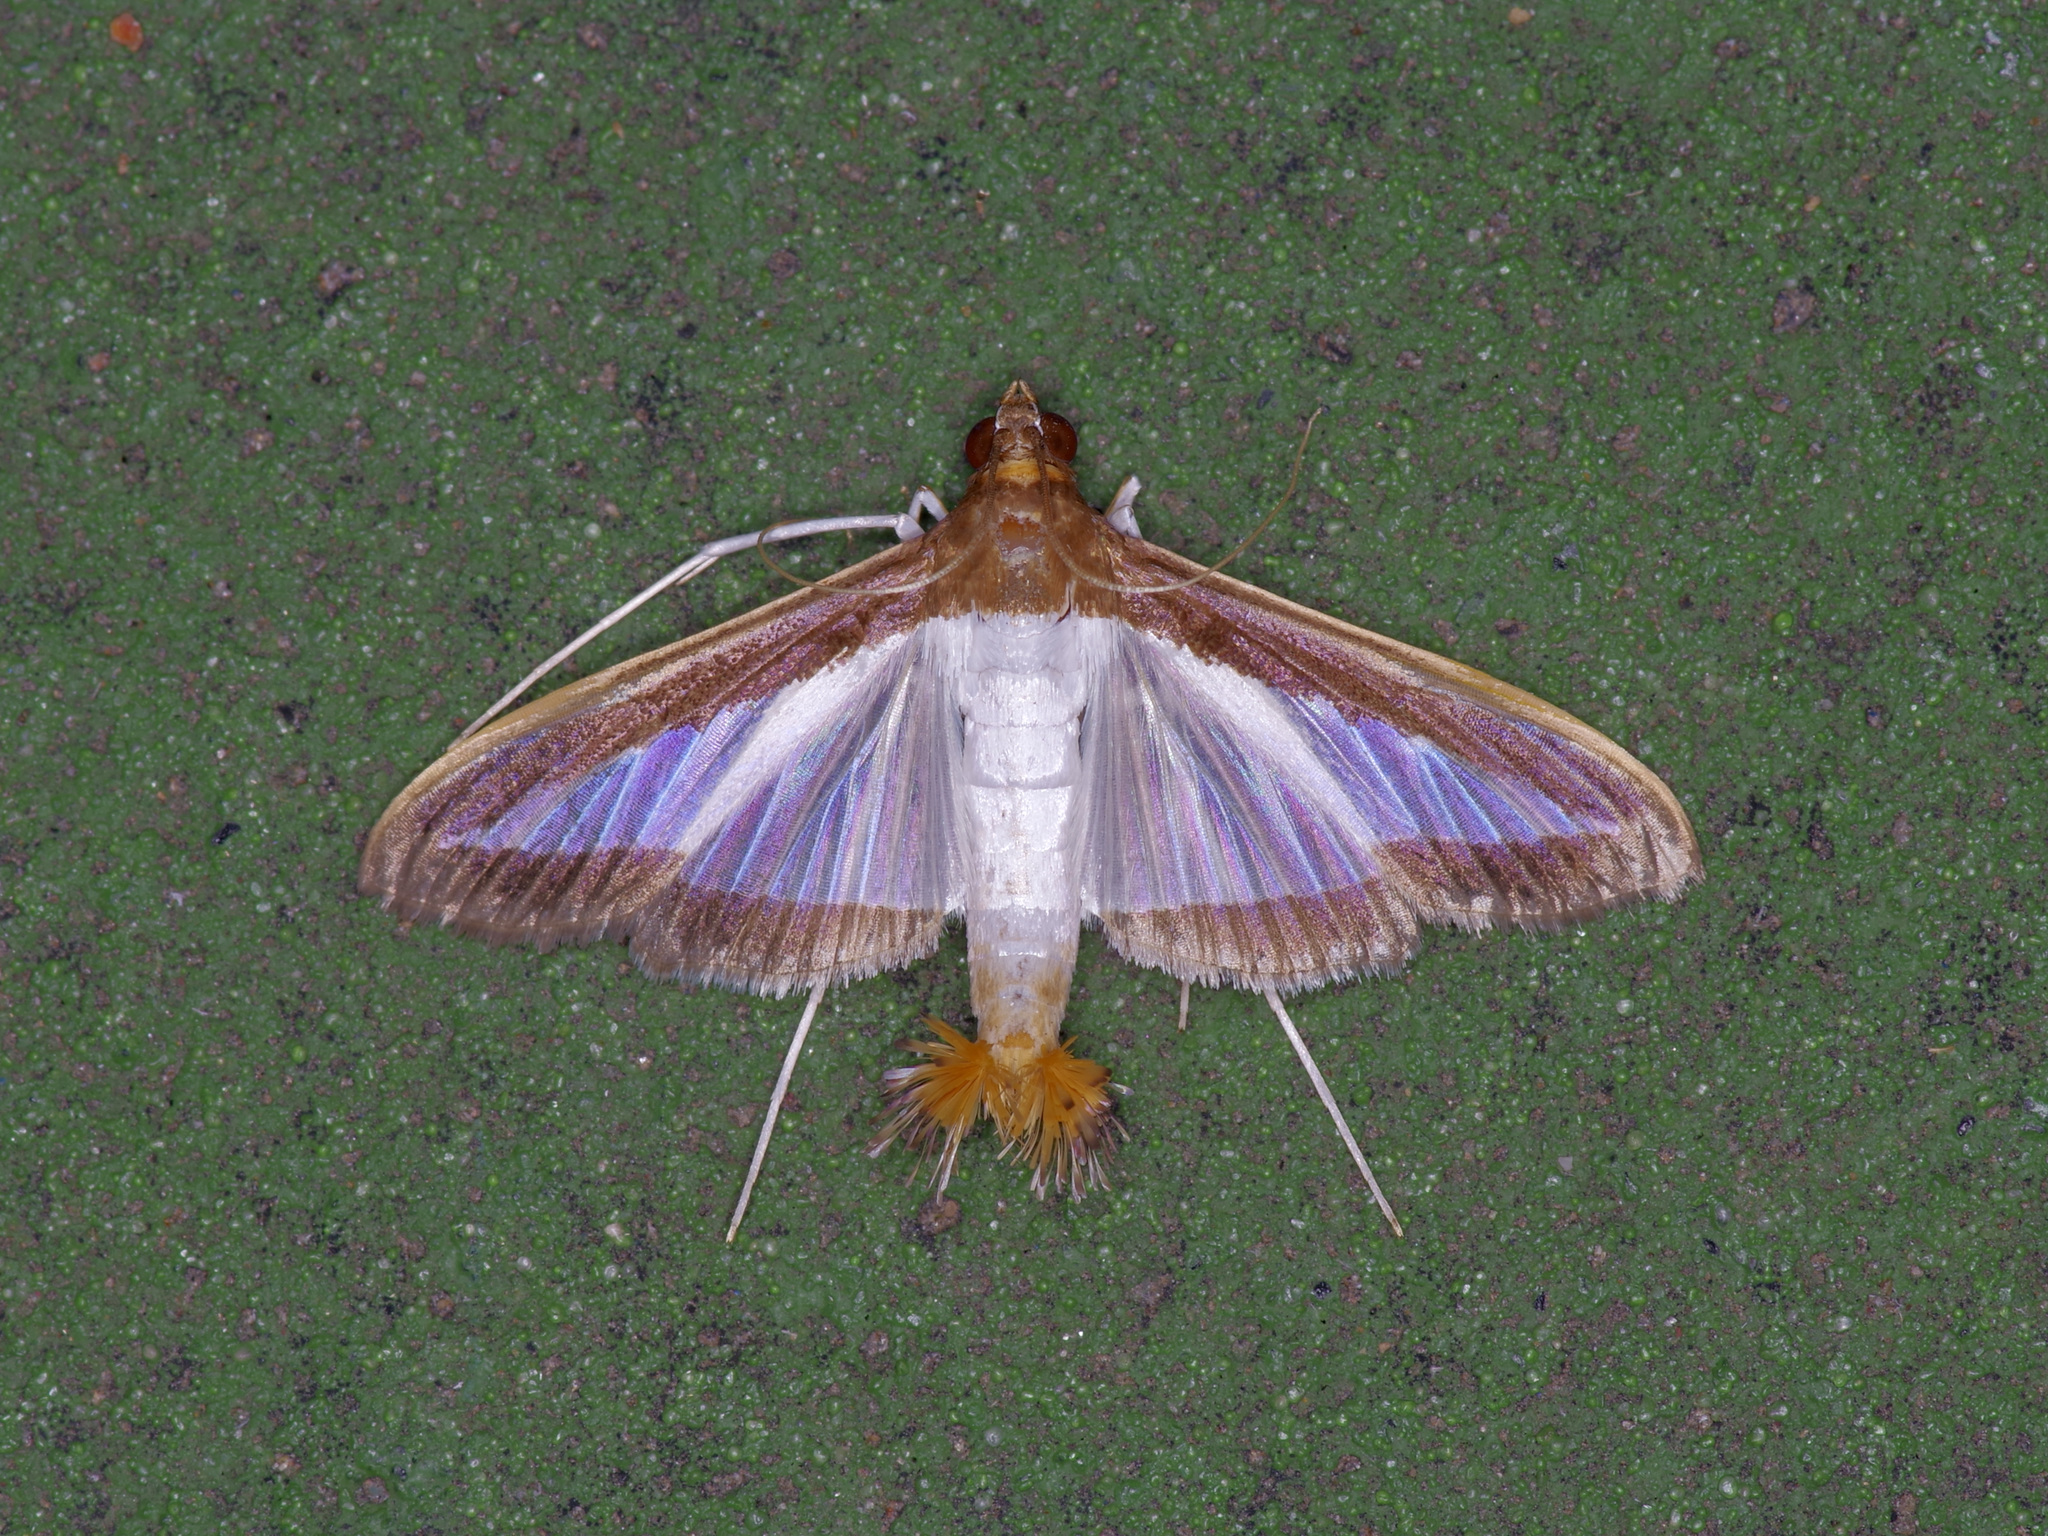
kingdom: Animalia
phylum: Arthropoda
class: Insecta
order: Lepidoptera
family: Crambidae
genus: Diaphania
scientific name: Diaphania hyalinata
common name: Melonworm
